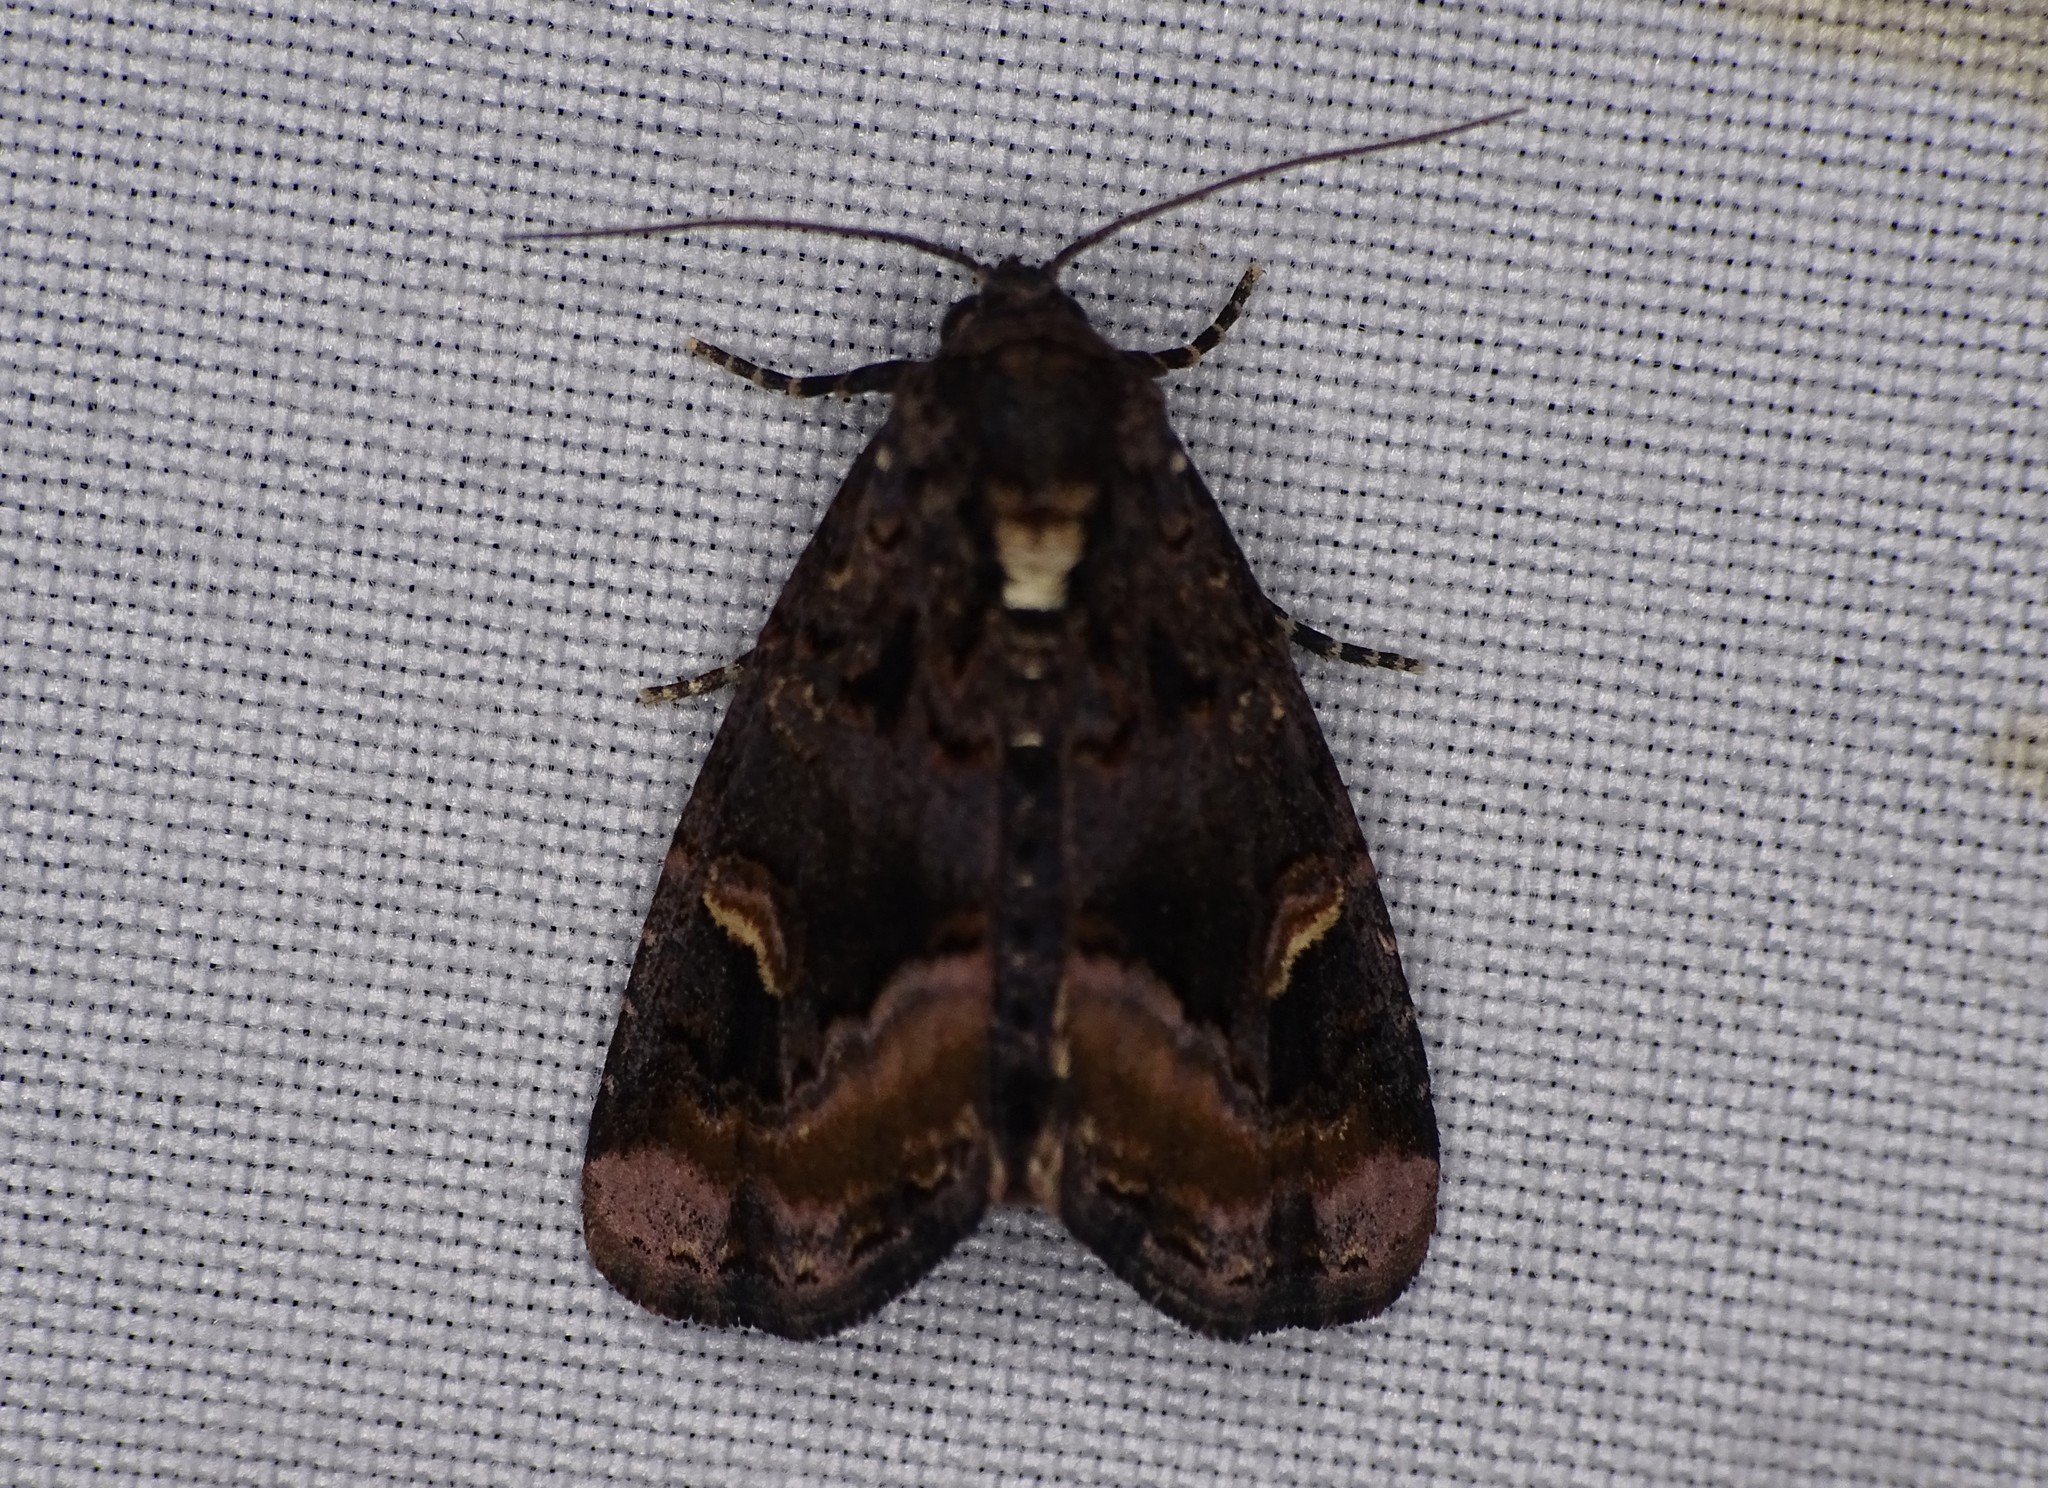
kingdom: Animalia
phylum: Arthropoda
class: Insecta
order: Lepidoptera
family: Noctuidae
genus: Homophoberia
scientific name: Homophoberia apicosa
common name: Black wedge-spot
